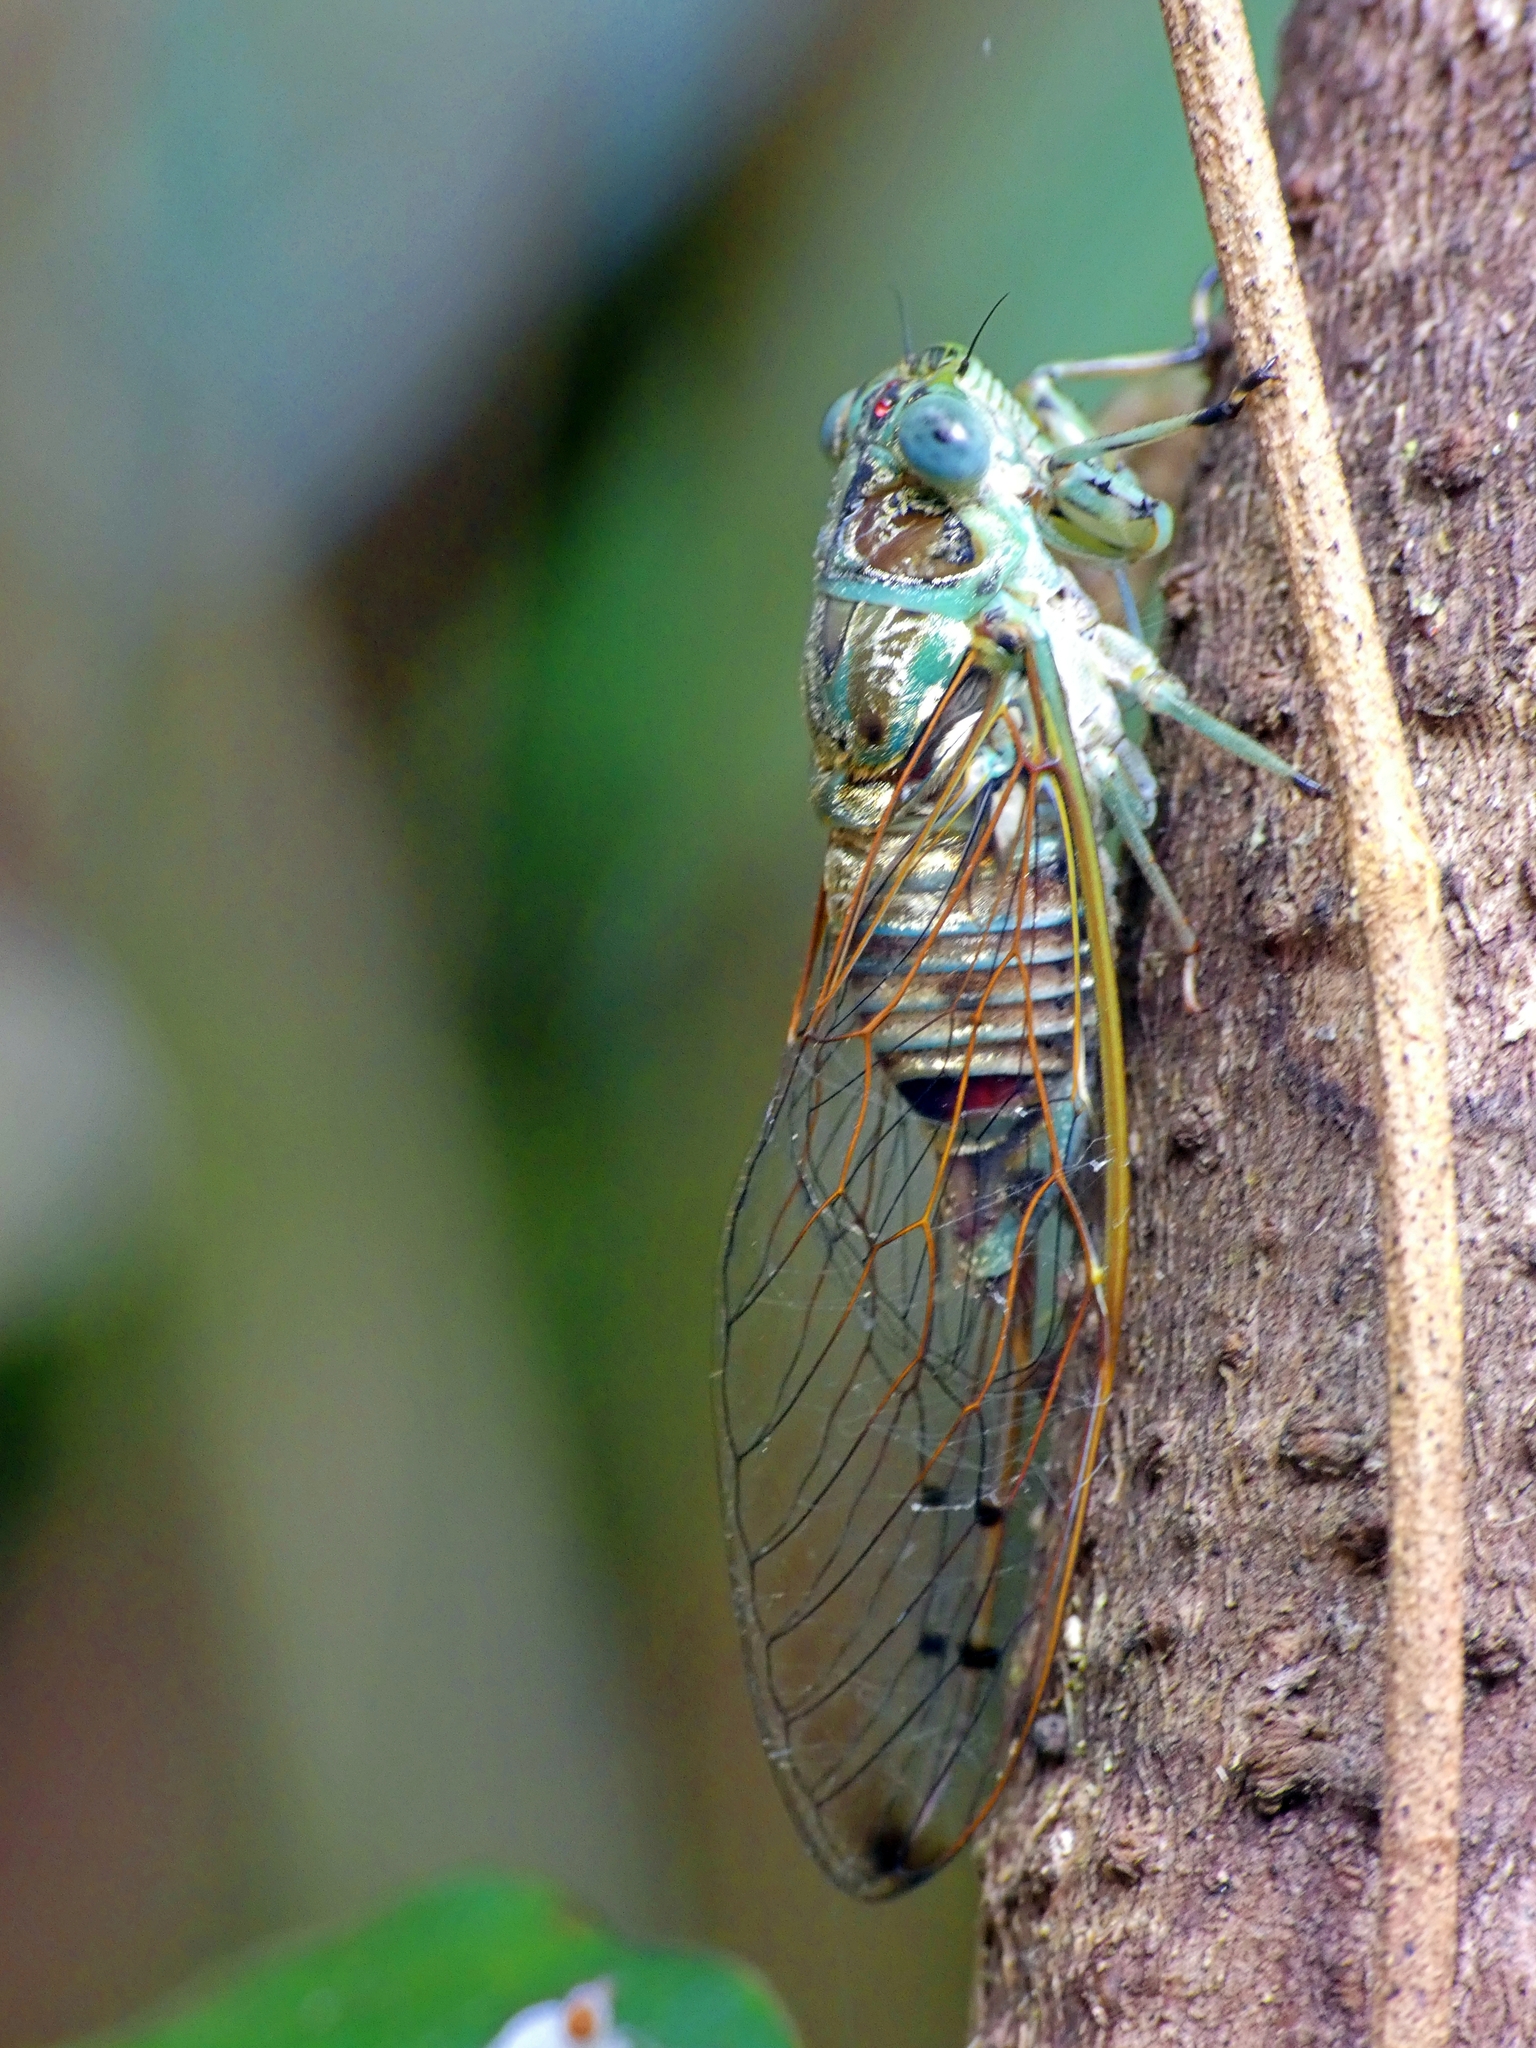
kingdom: Animalia
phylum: Arthropoda
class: Insecta
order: Hemiptera
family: Cicadidae
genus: Tamasa
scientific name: Tamasa tristigma
